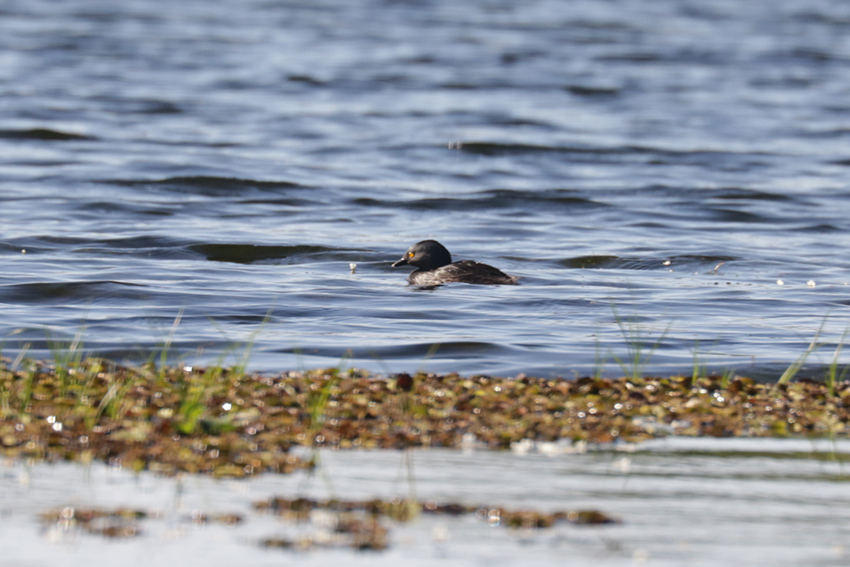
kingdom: Animalia
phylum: Chordata
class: Aves
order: Podicipediformes
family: Podicipedidae
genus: Tachybaptus
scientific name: Tachybaptus dominicus
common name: Least grebe
